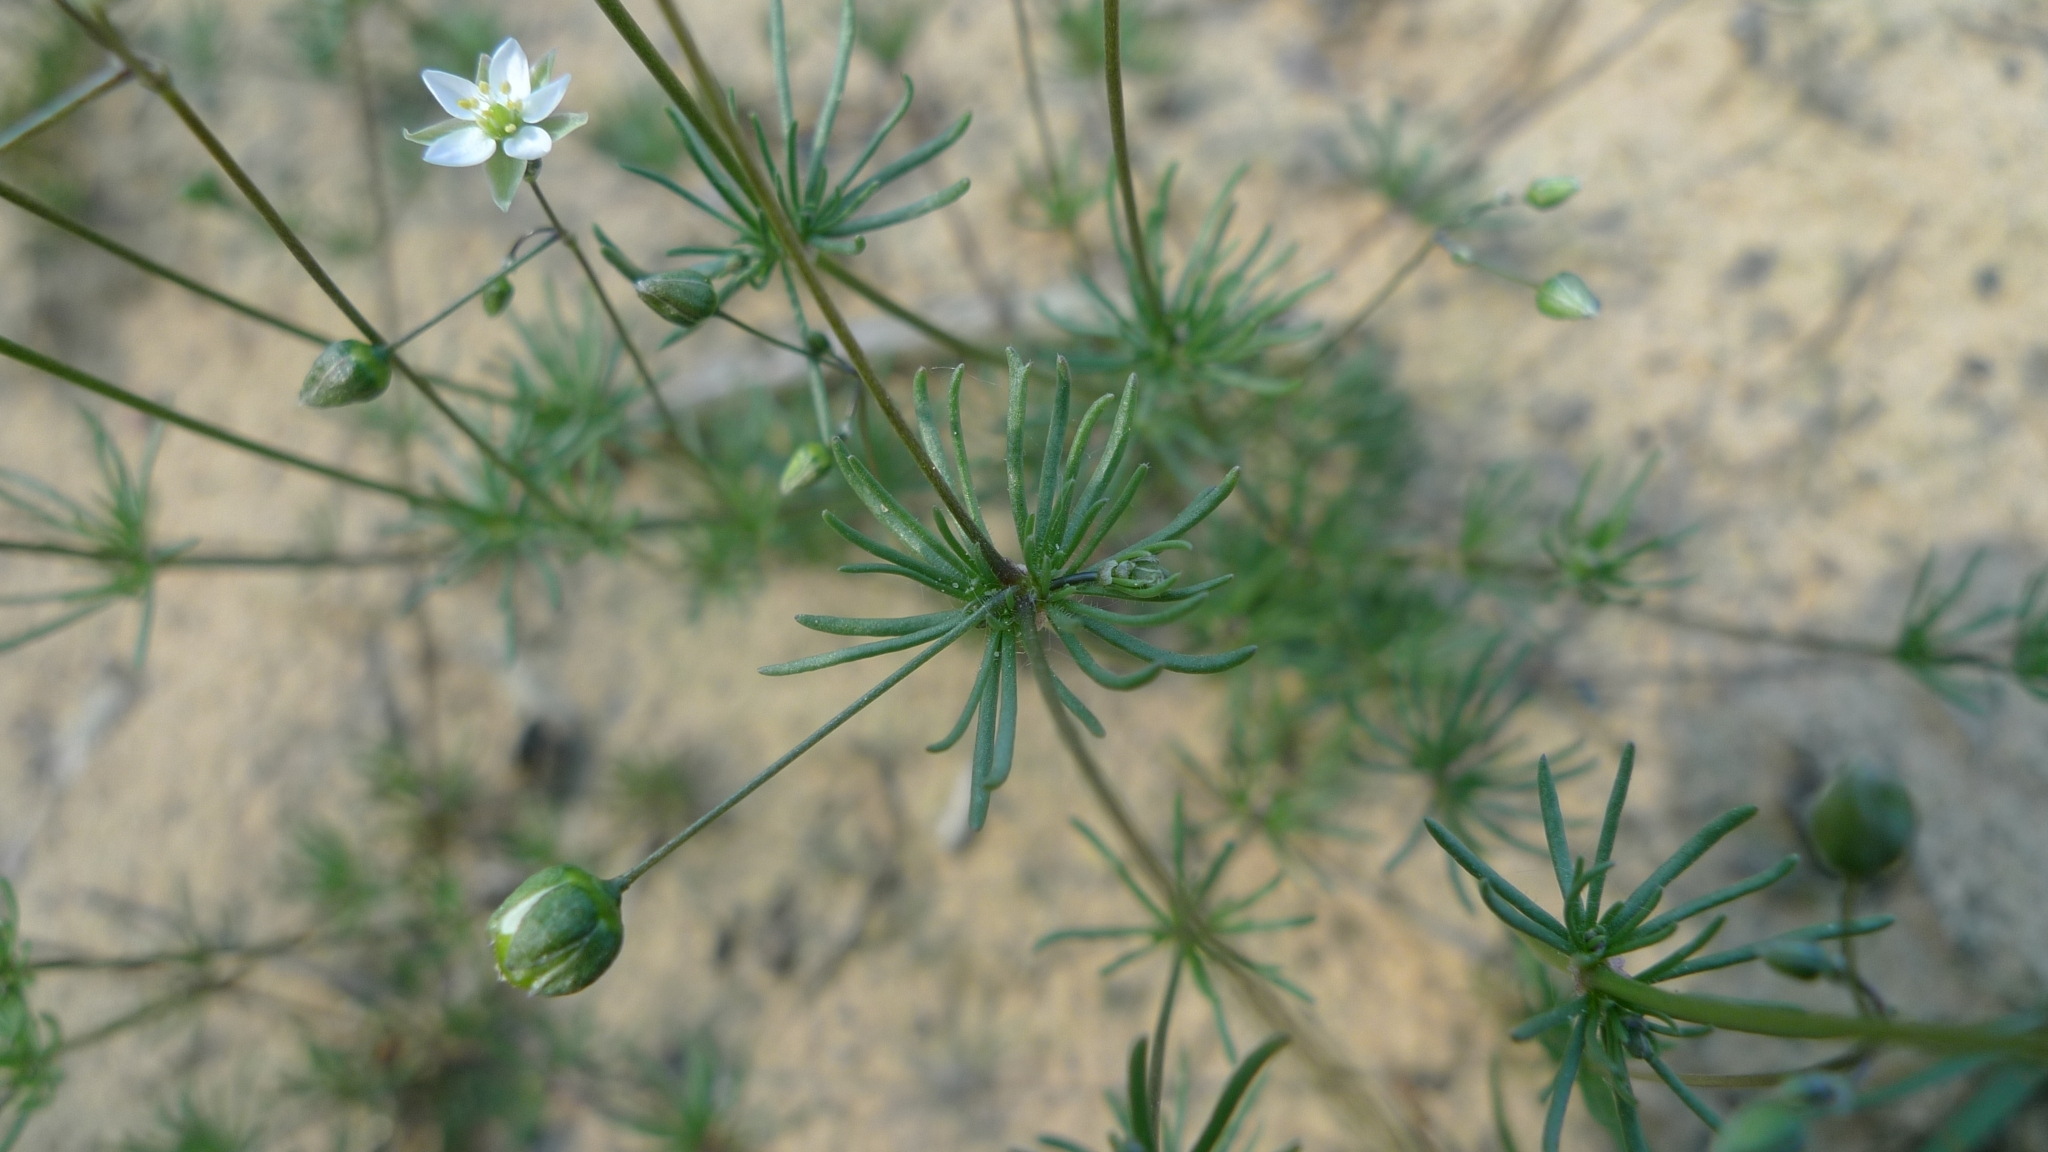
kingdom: Plantae
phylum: Tracheophyta
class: Magnoliopsida
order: Caryophyllales
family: Caryophyllaceae
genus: Spergula
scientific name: Spergula morisonii
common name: Pearlwort spurrey
